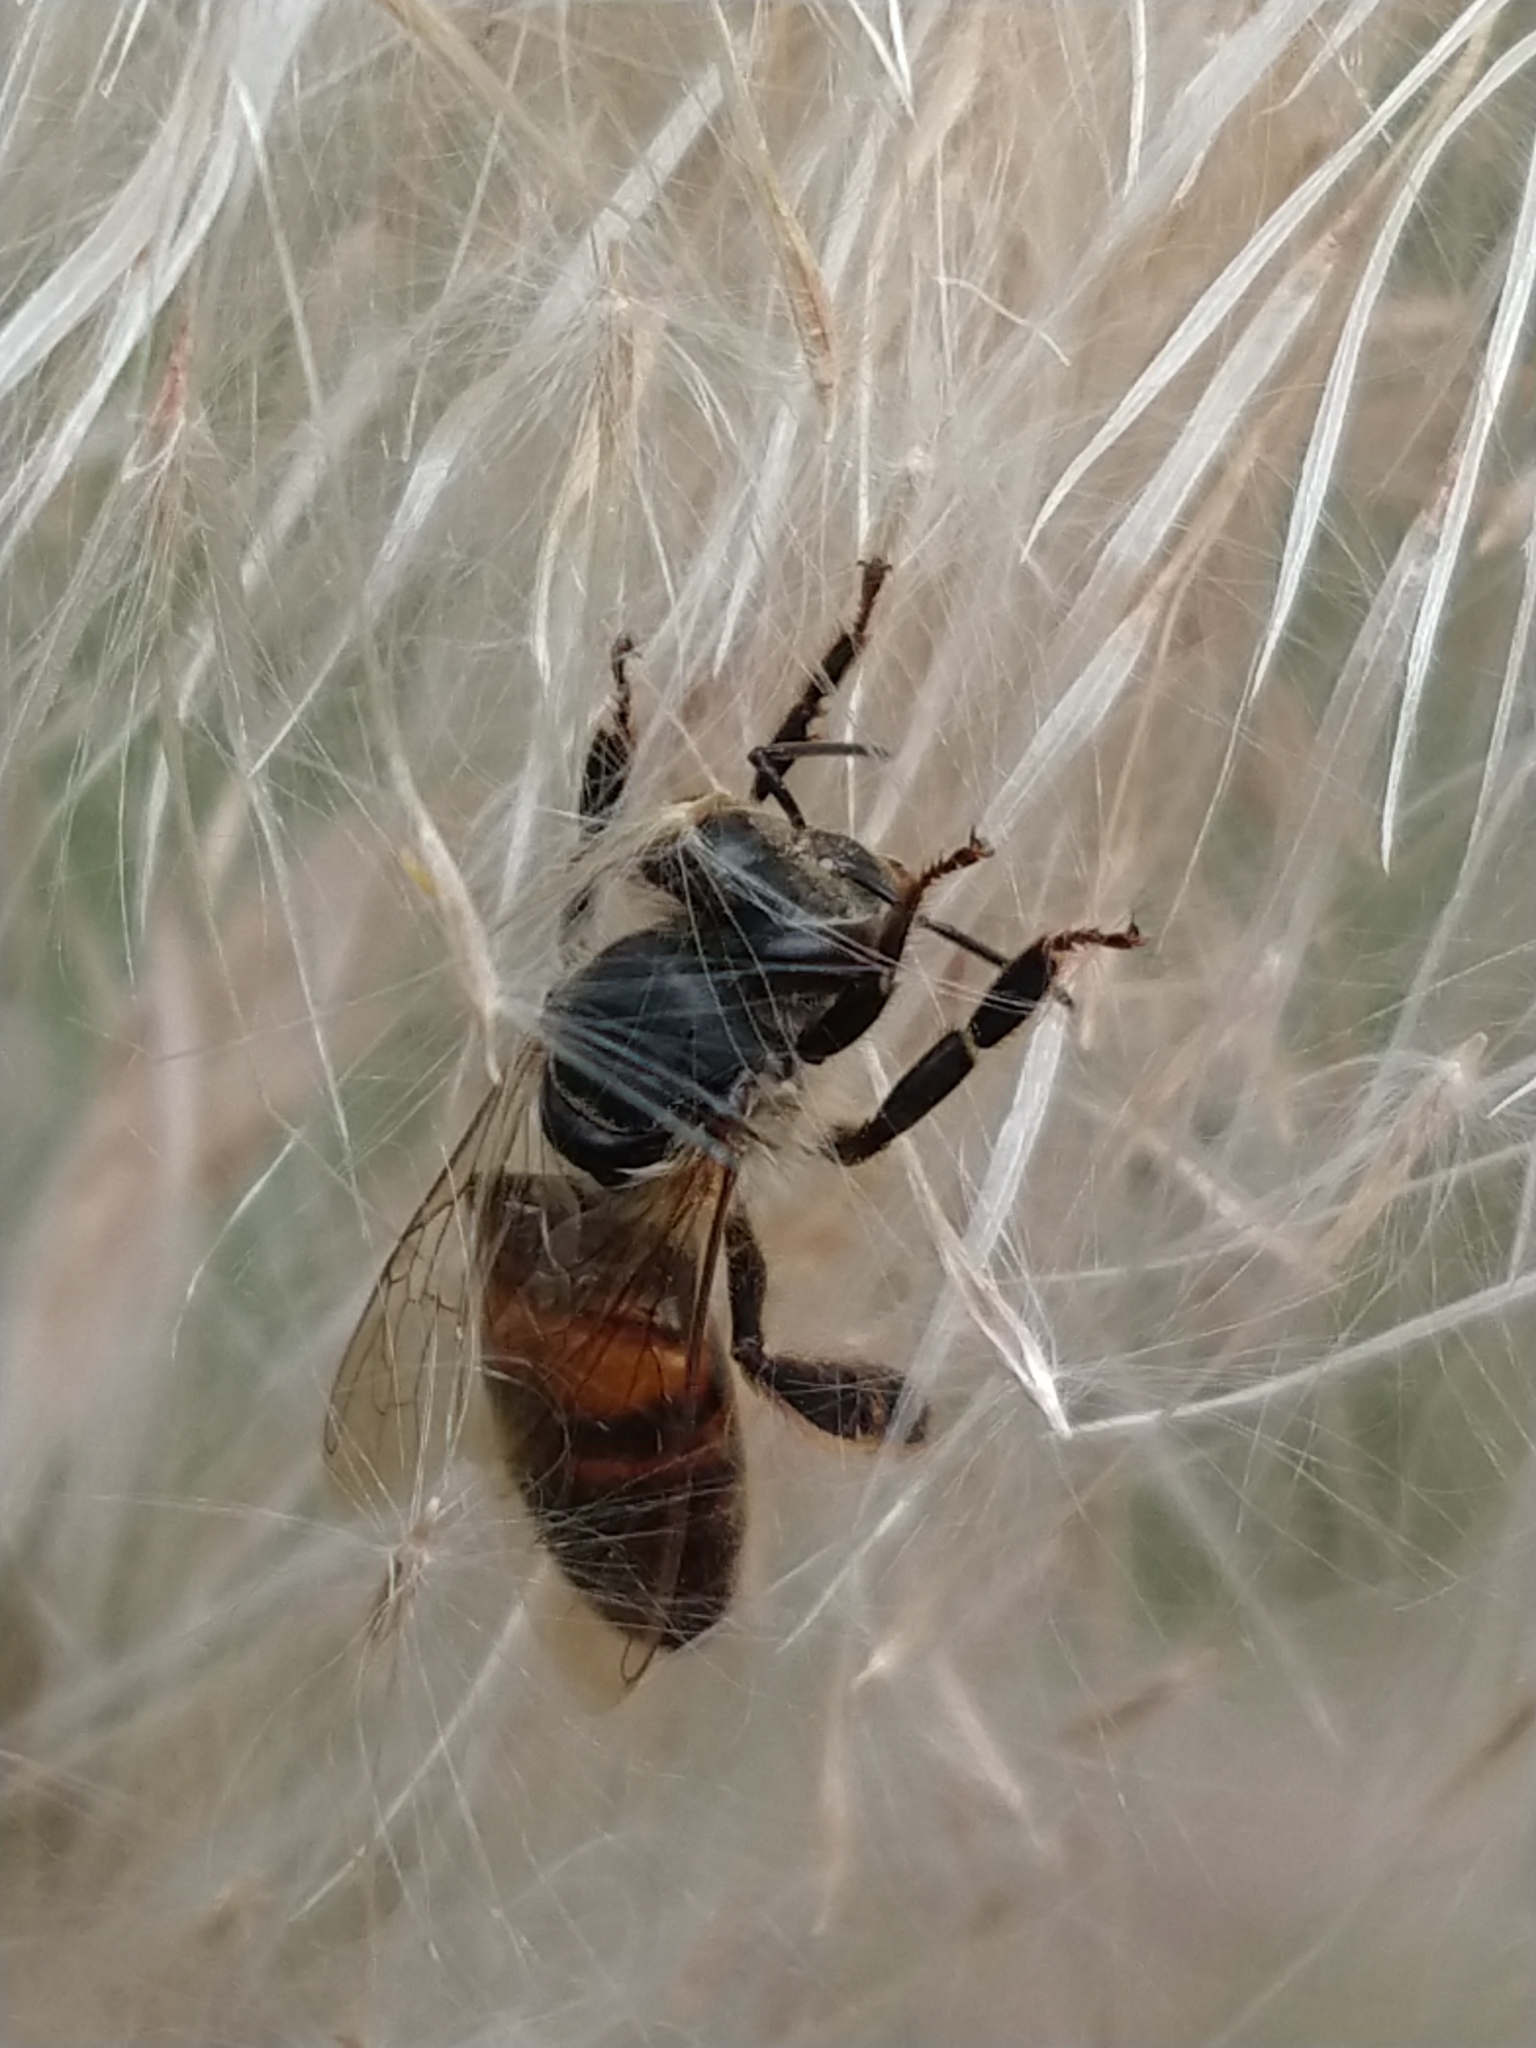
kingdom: Animalia
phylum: Arthropoda
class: Insecta
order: Hymenoptera
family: Apidae
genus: Apis
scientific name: Apis mellifera
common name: Honey bee
